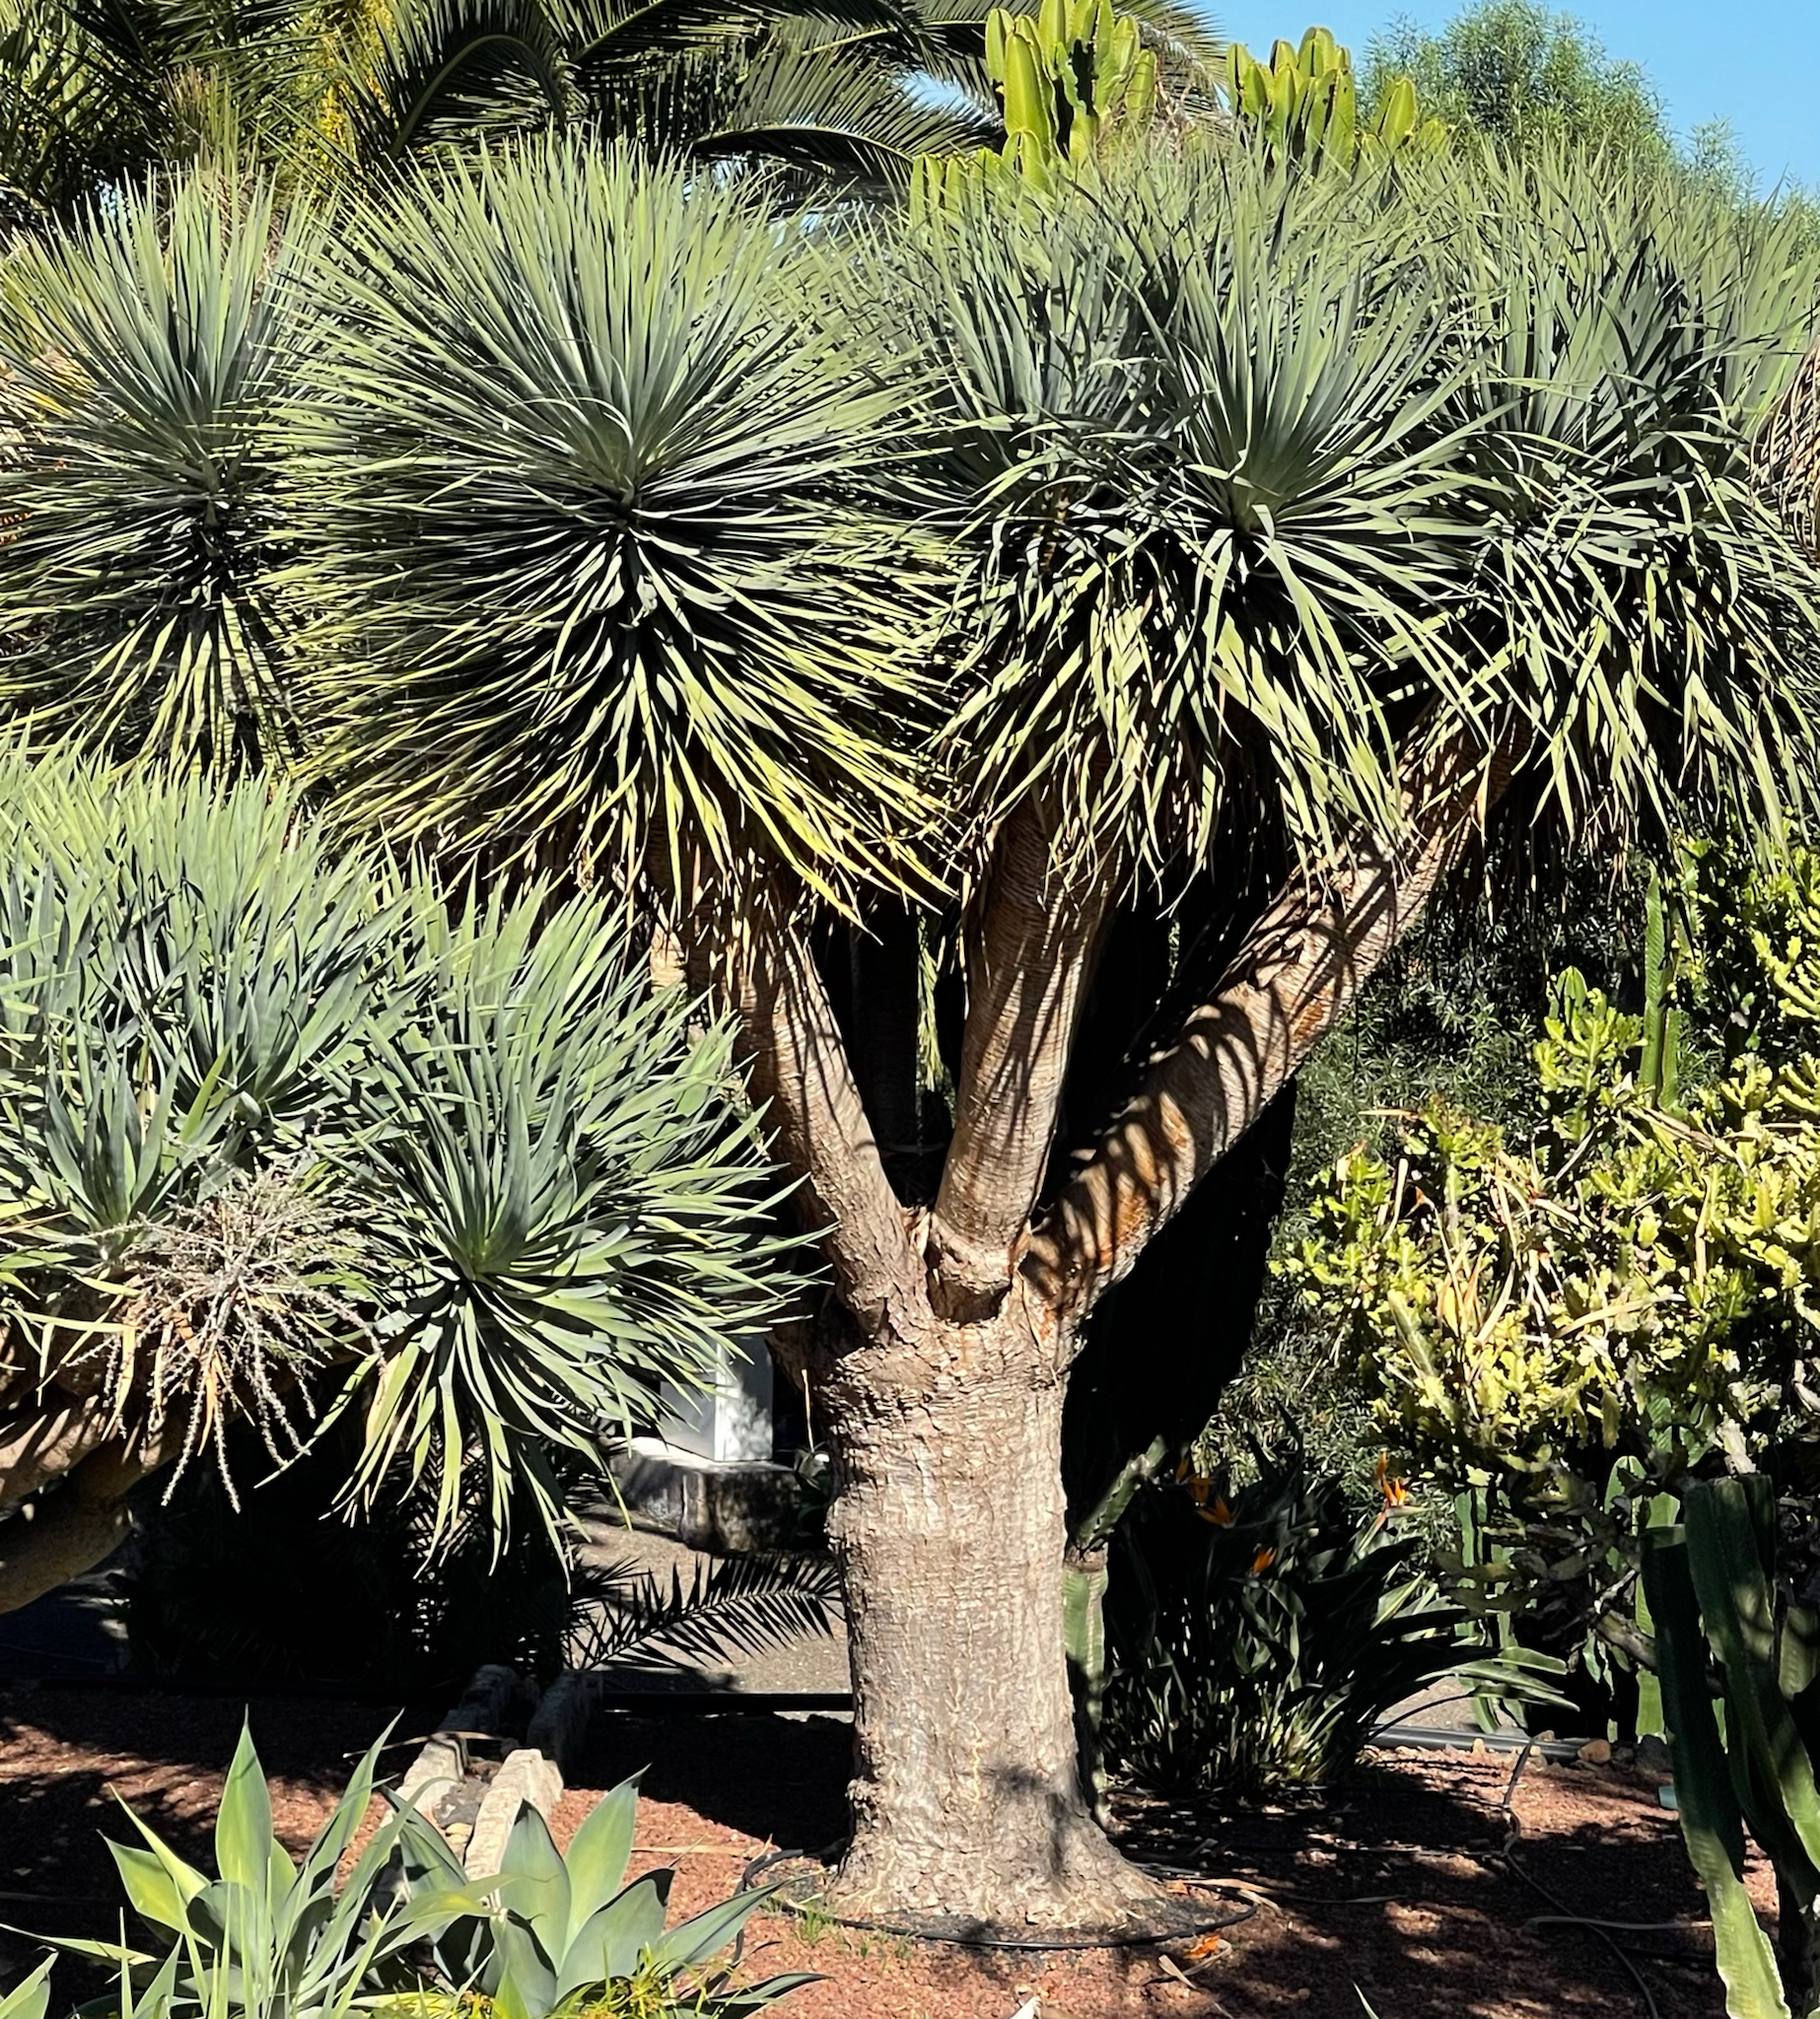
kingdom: Plantae
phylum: Tracheophyta
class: Liliopsida
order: Asparagales
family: Asparagaceae
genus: Dracaena
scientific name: Dracaena draco
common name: Canary island dragon tree
